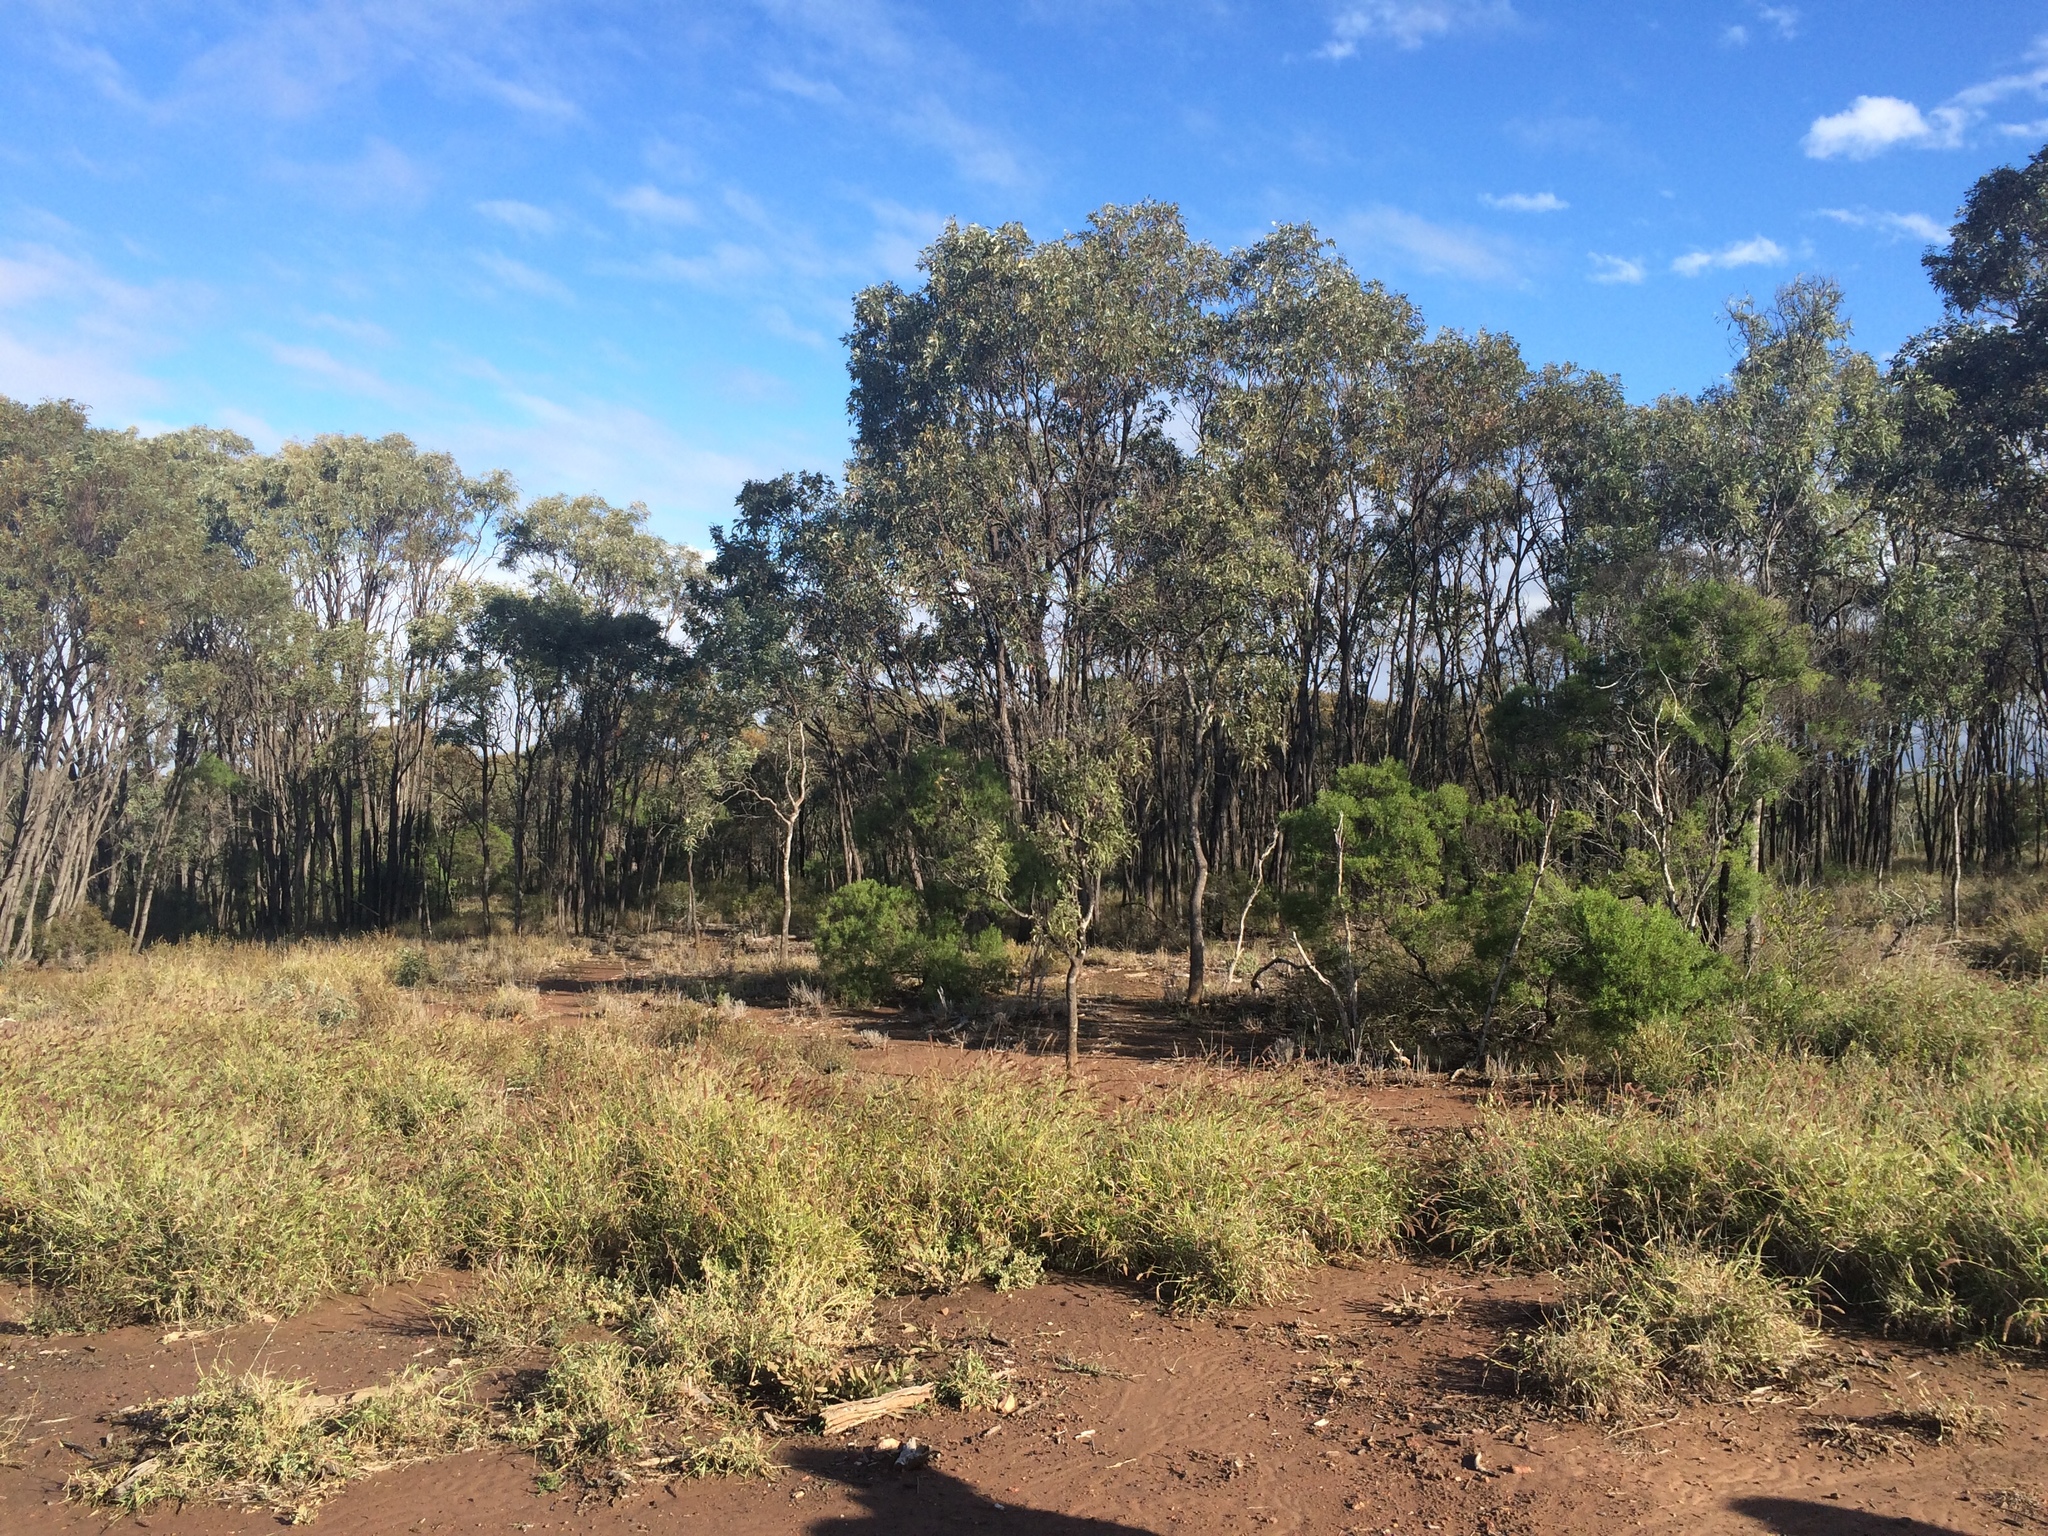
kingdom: Plantae
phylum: Tracheophyta
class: Magnoliopsida
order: Fabales
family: Fabaceae
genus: Acacia
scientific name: Acacia harpophylla
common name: Brigalow
